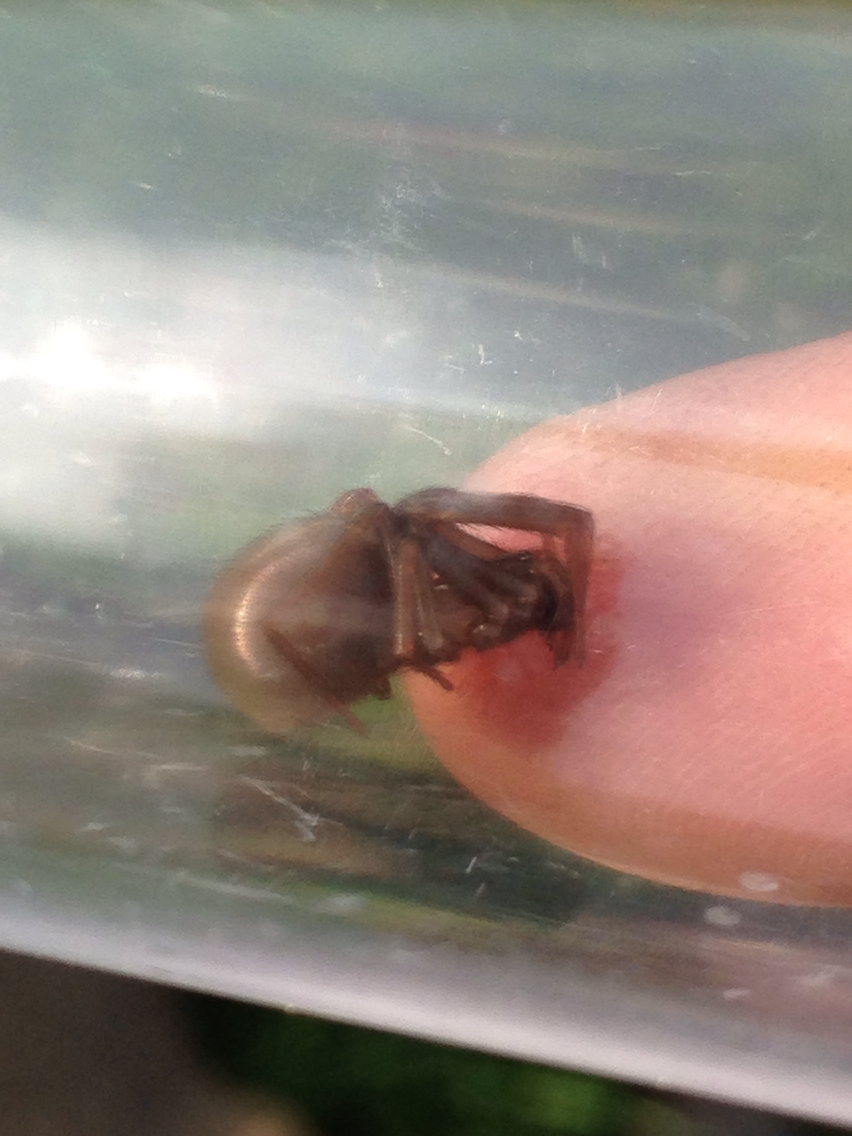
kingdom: Animalia
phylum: Arthropoda
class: Arachnida
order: Araneae
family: Filistatidae
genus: Kukulcania
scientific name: Kukulcania
